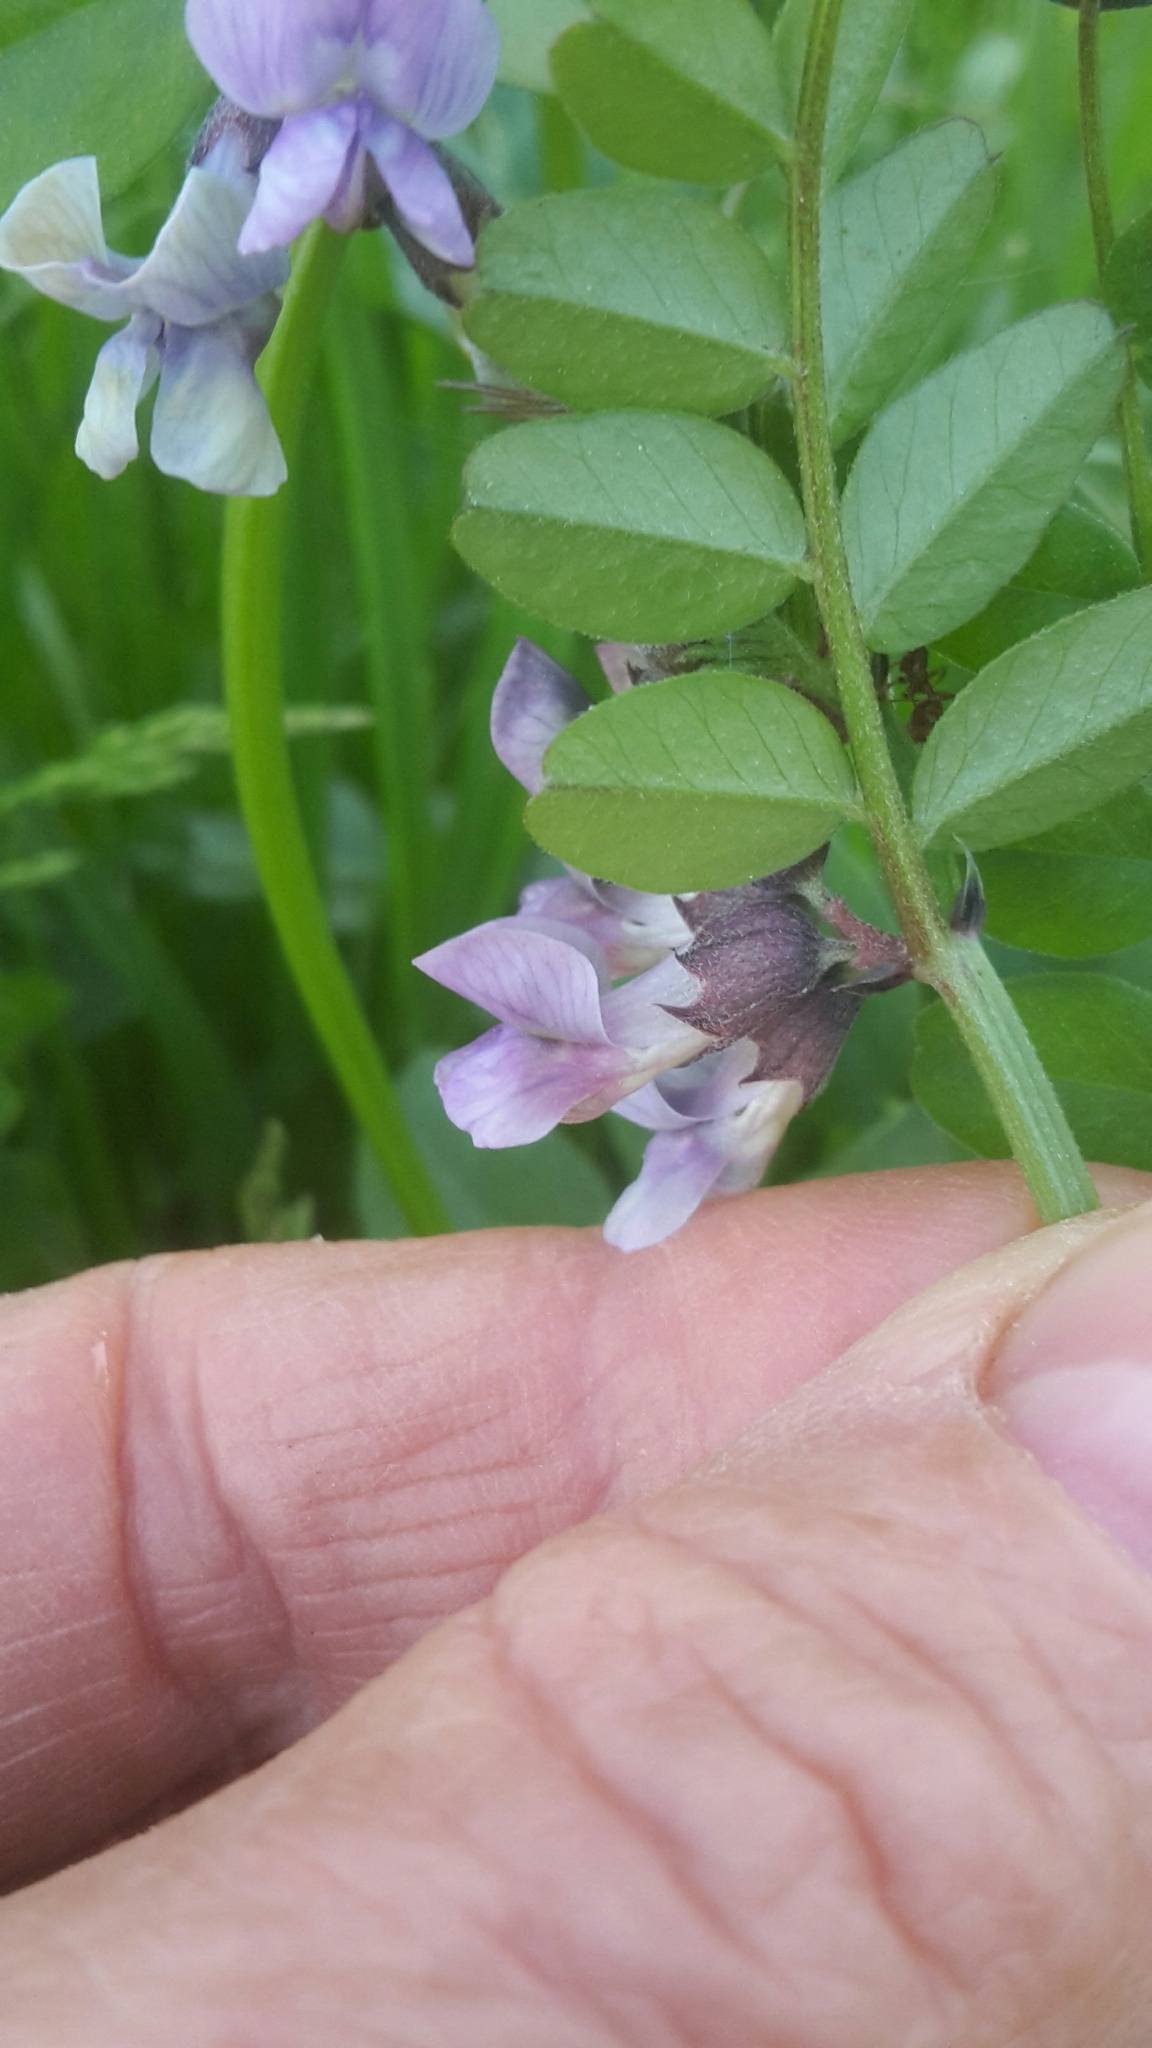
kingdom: Plantae
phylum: Tracheophyta
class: Magnoliopsida
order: Fabales
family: Fabaceae
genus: Vicia
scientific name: Vicia sepium
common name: Bush vetch
